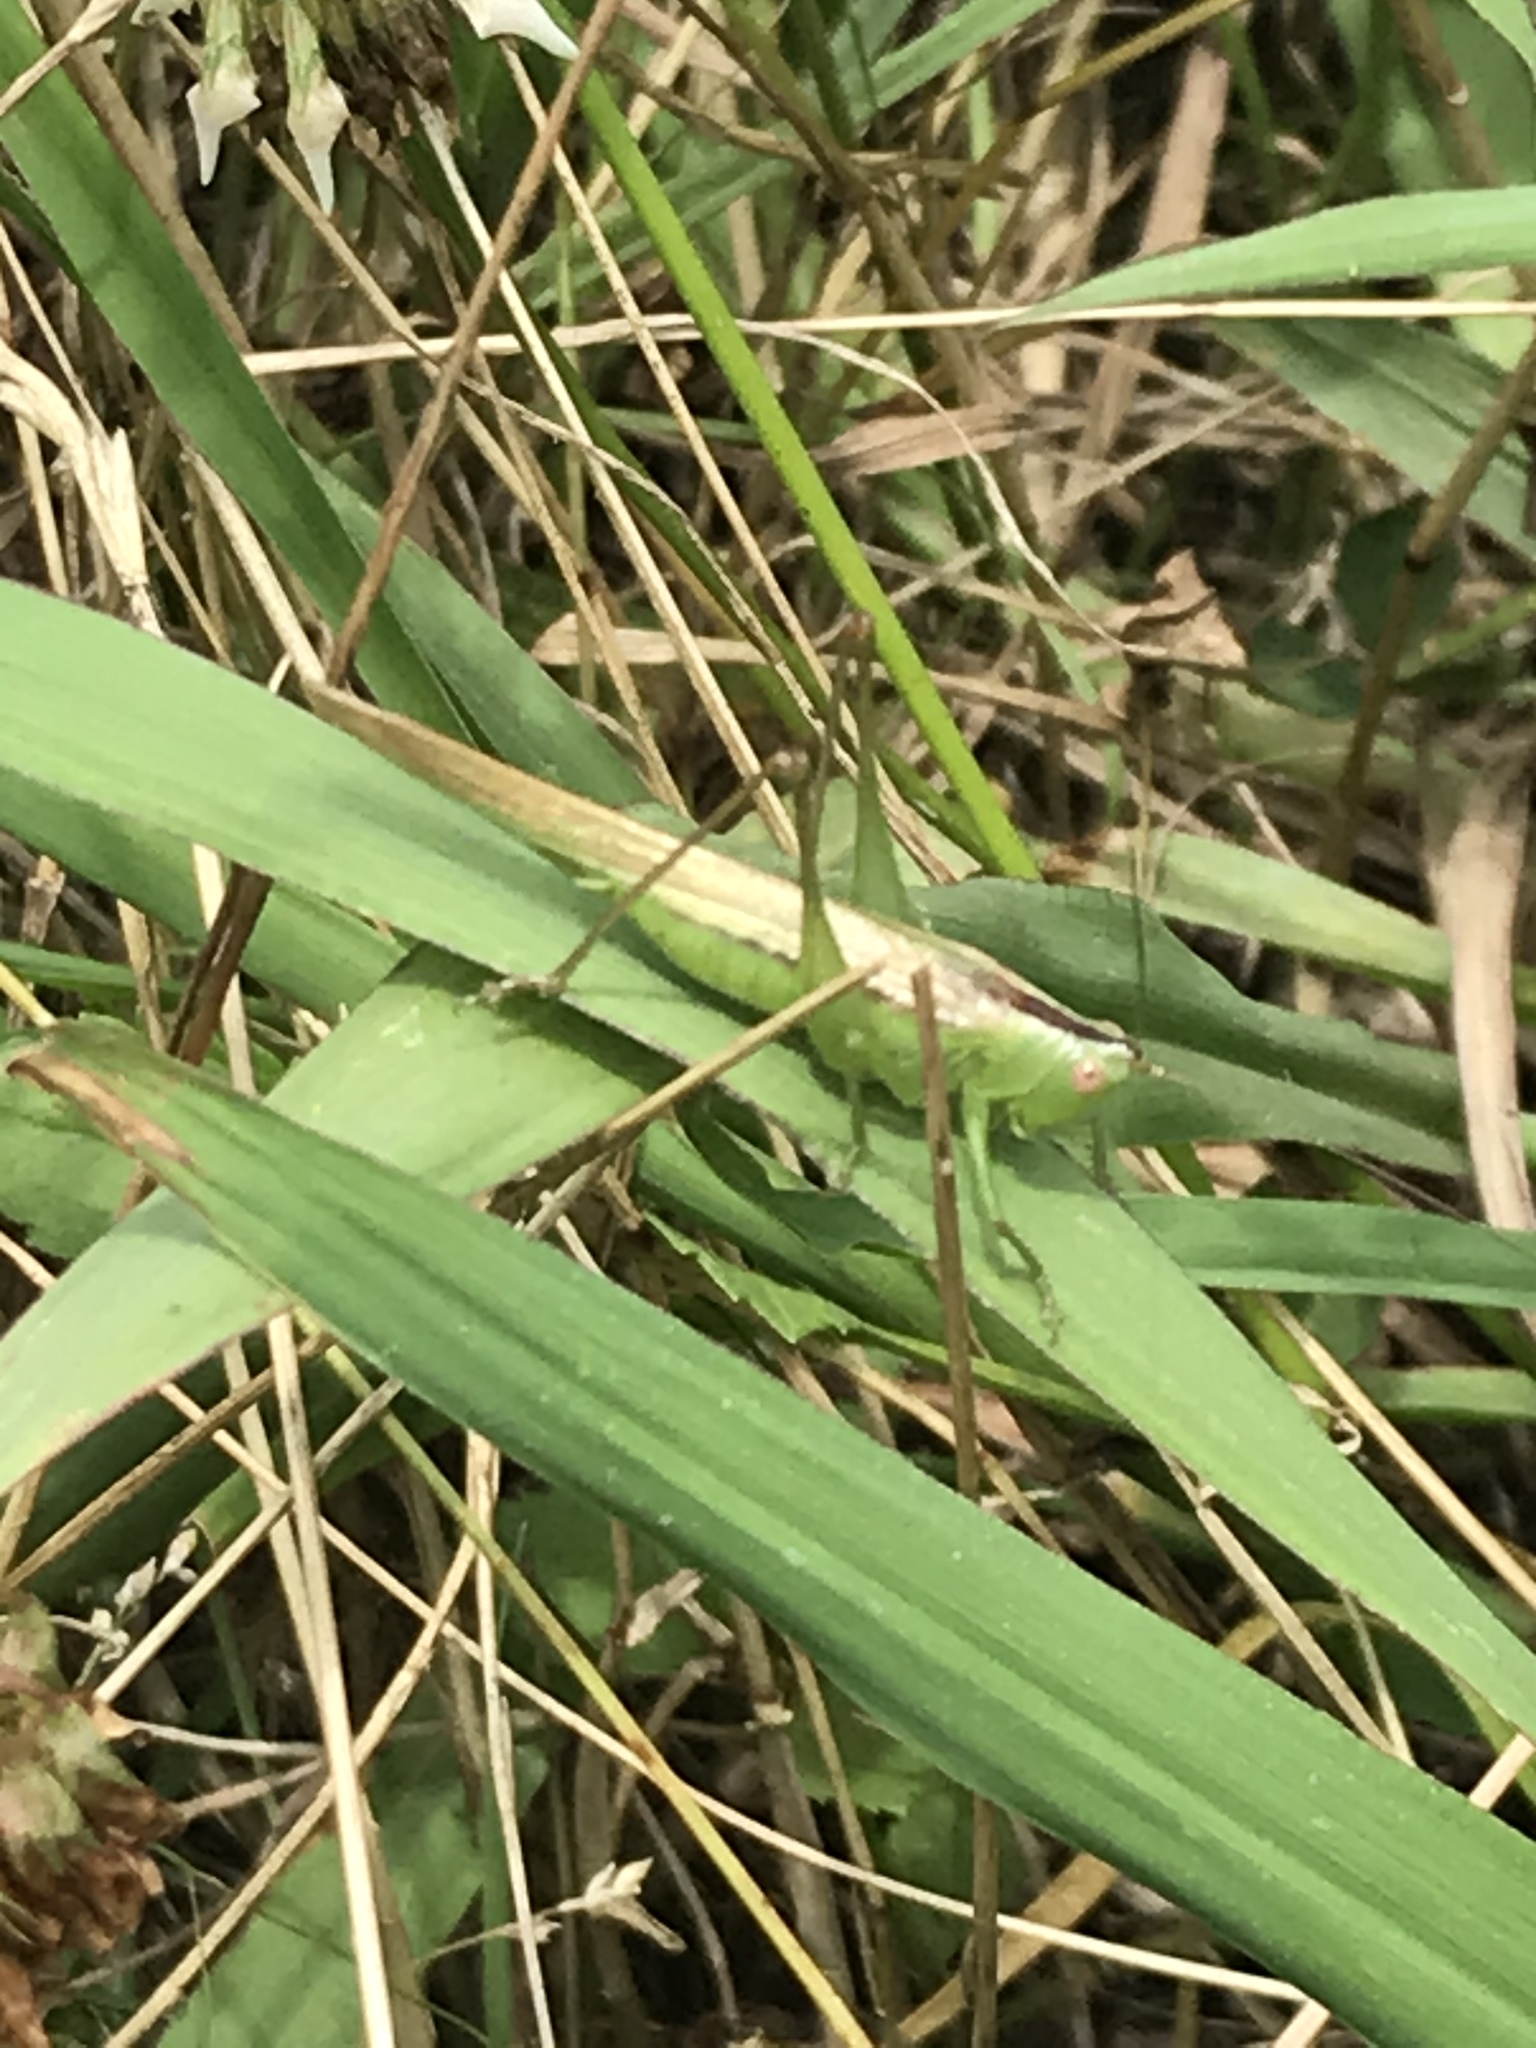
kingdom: Animalia
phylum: Arthropoda
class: Insecta
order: Orthoptera
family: Tettigoniidae
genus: Conocephalus
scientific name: Conocephalus fasciatus
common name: Slender meadow katydid
